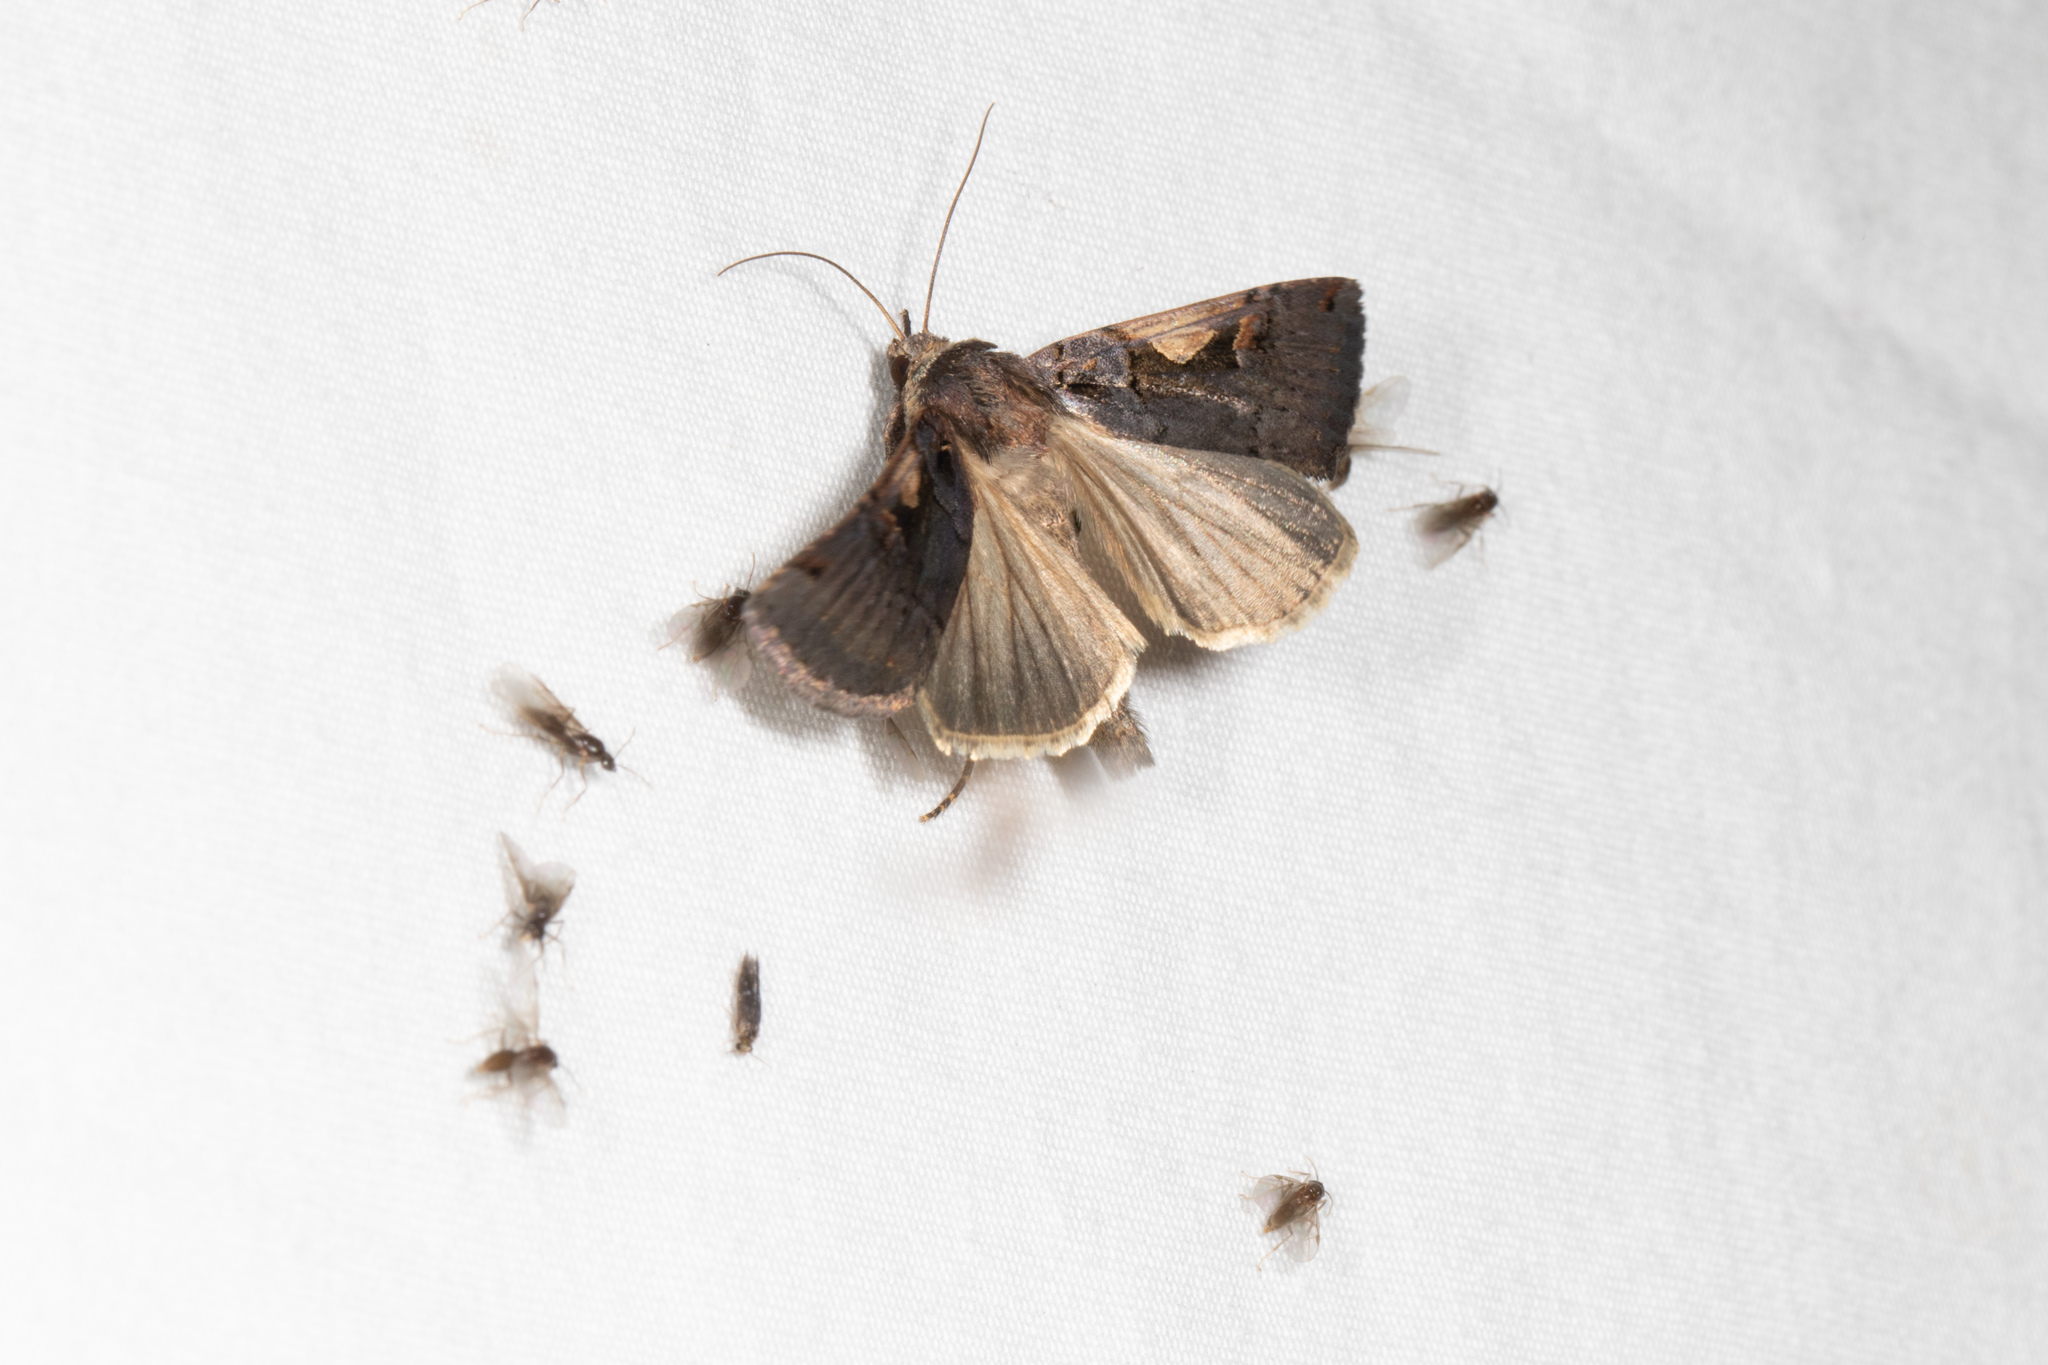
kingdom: Animalia
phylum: Arthropoda
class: Insecta
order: Lepidoptera
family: Noctuidae
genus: Xestia
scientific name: Xestia c-nigrum
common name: Setaceous hebrew character
